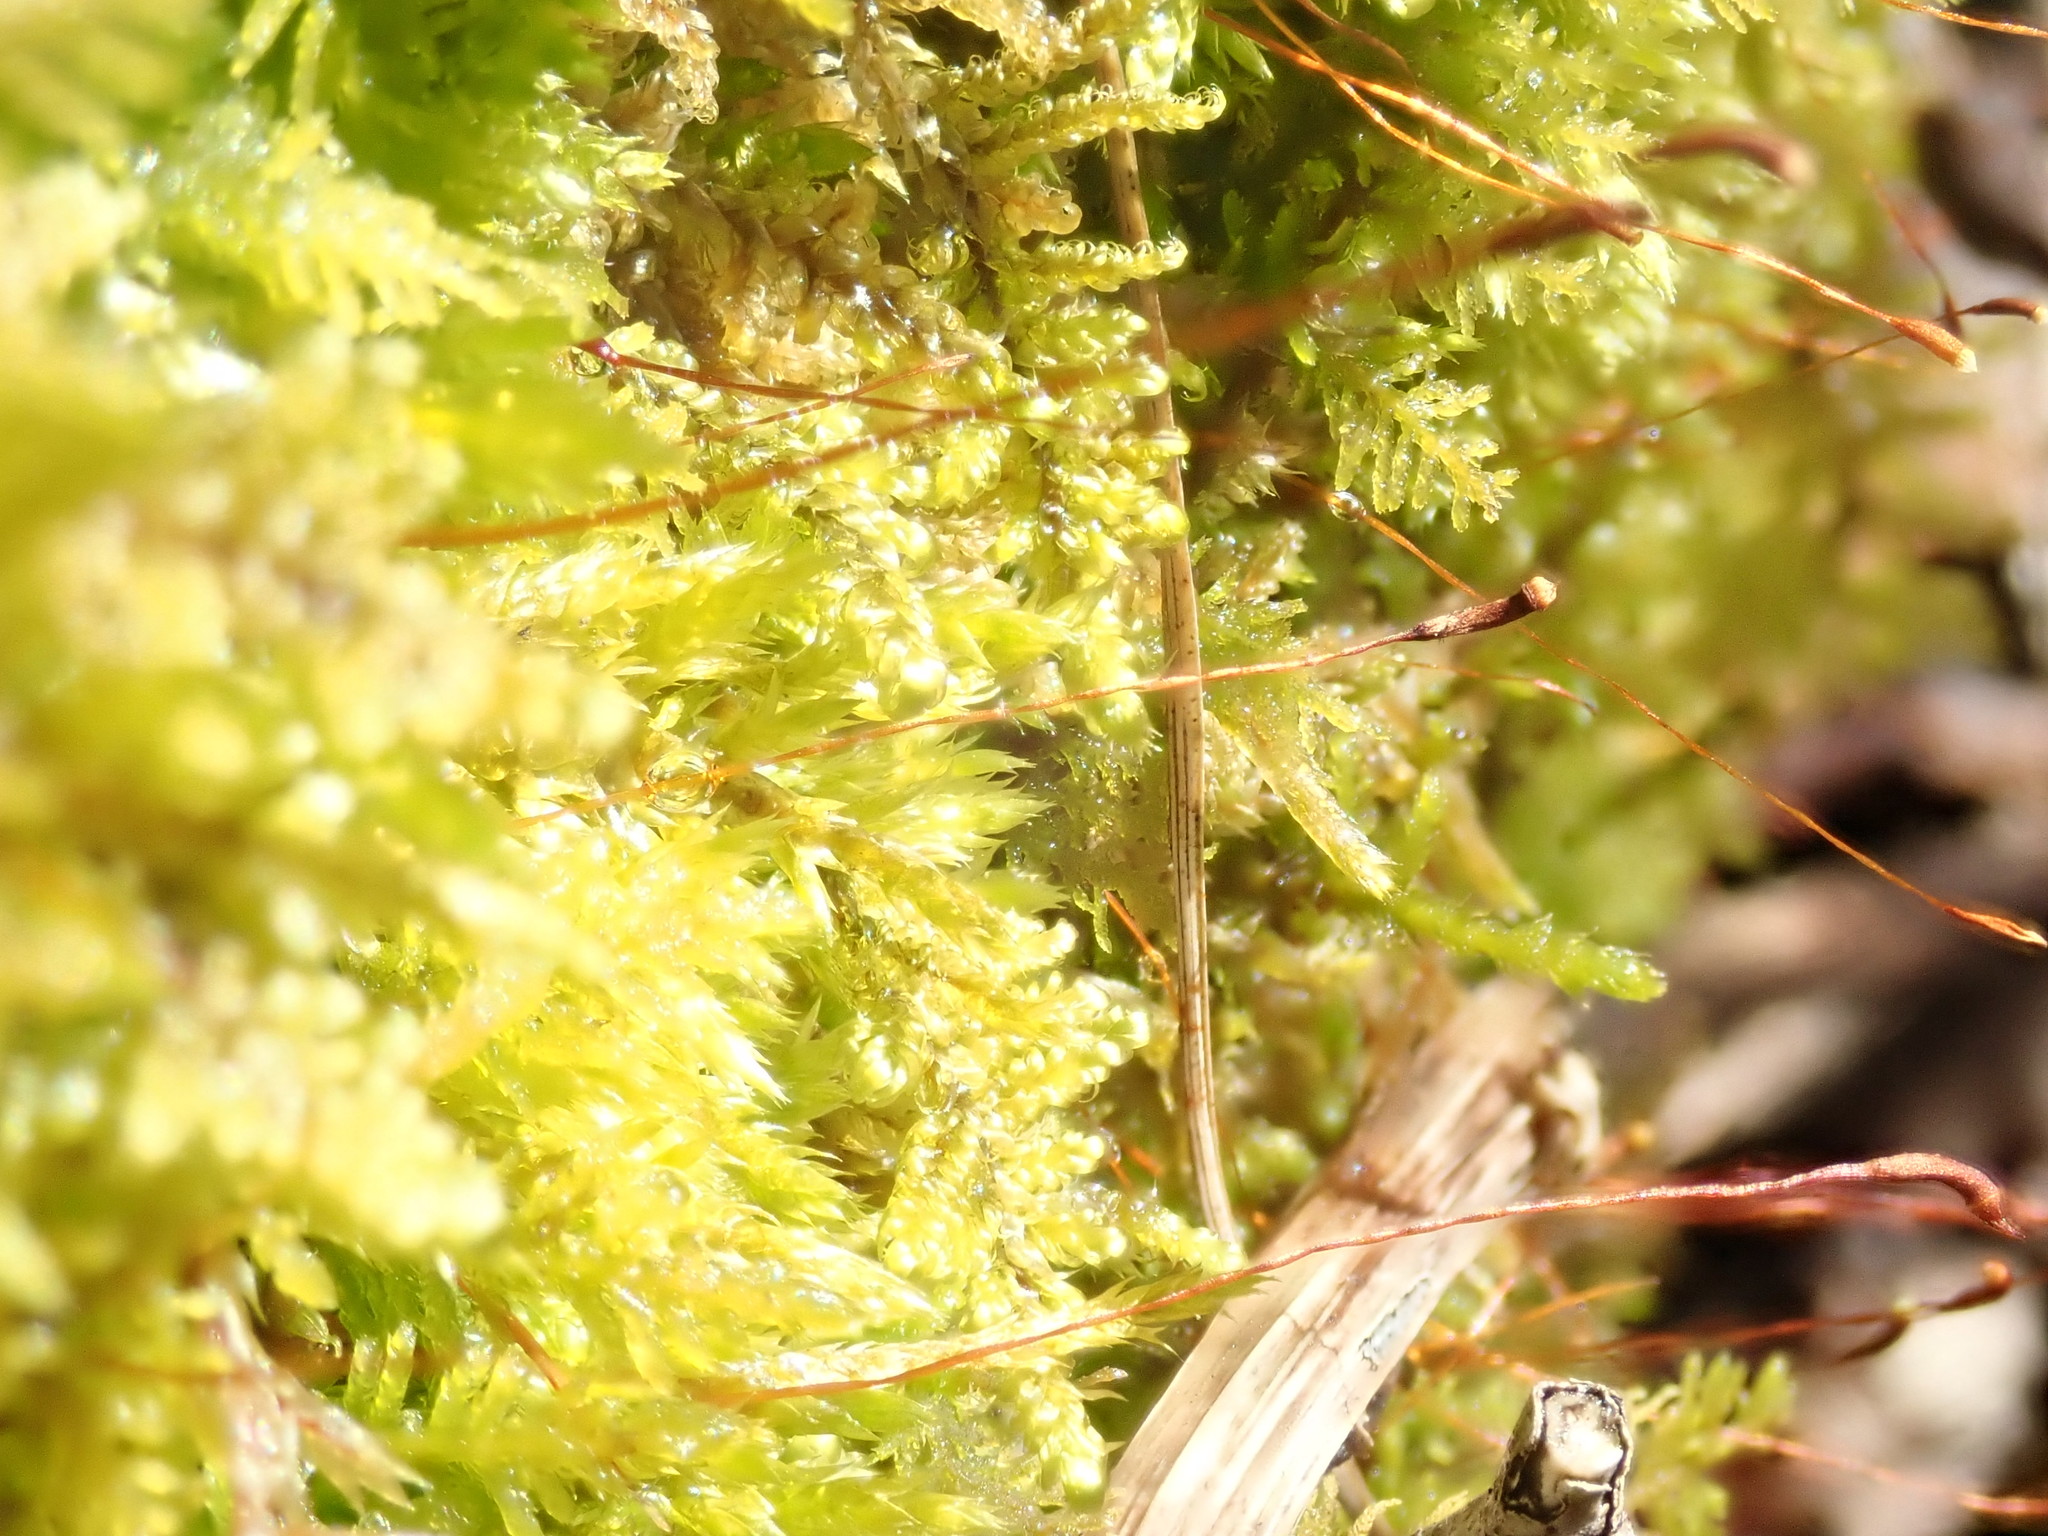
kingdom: Plantae
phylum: Bryophyta
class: Bryopsida
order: Hypnales
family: Callicladiaceae
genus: Callicladium
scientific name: Callicladium imponens
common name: Brocade moss
